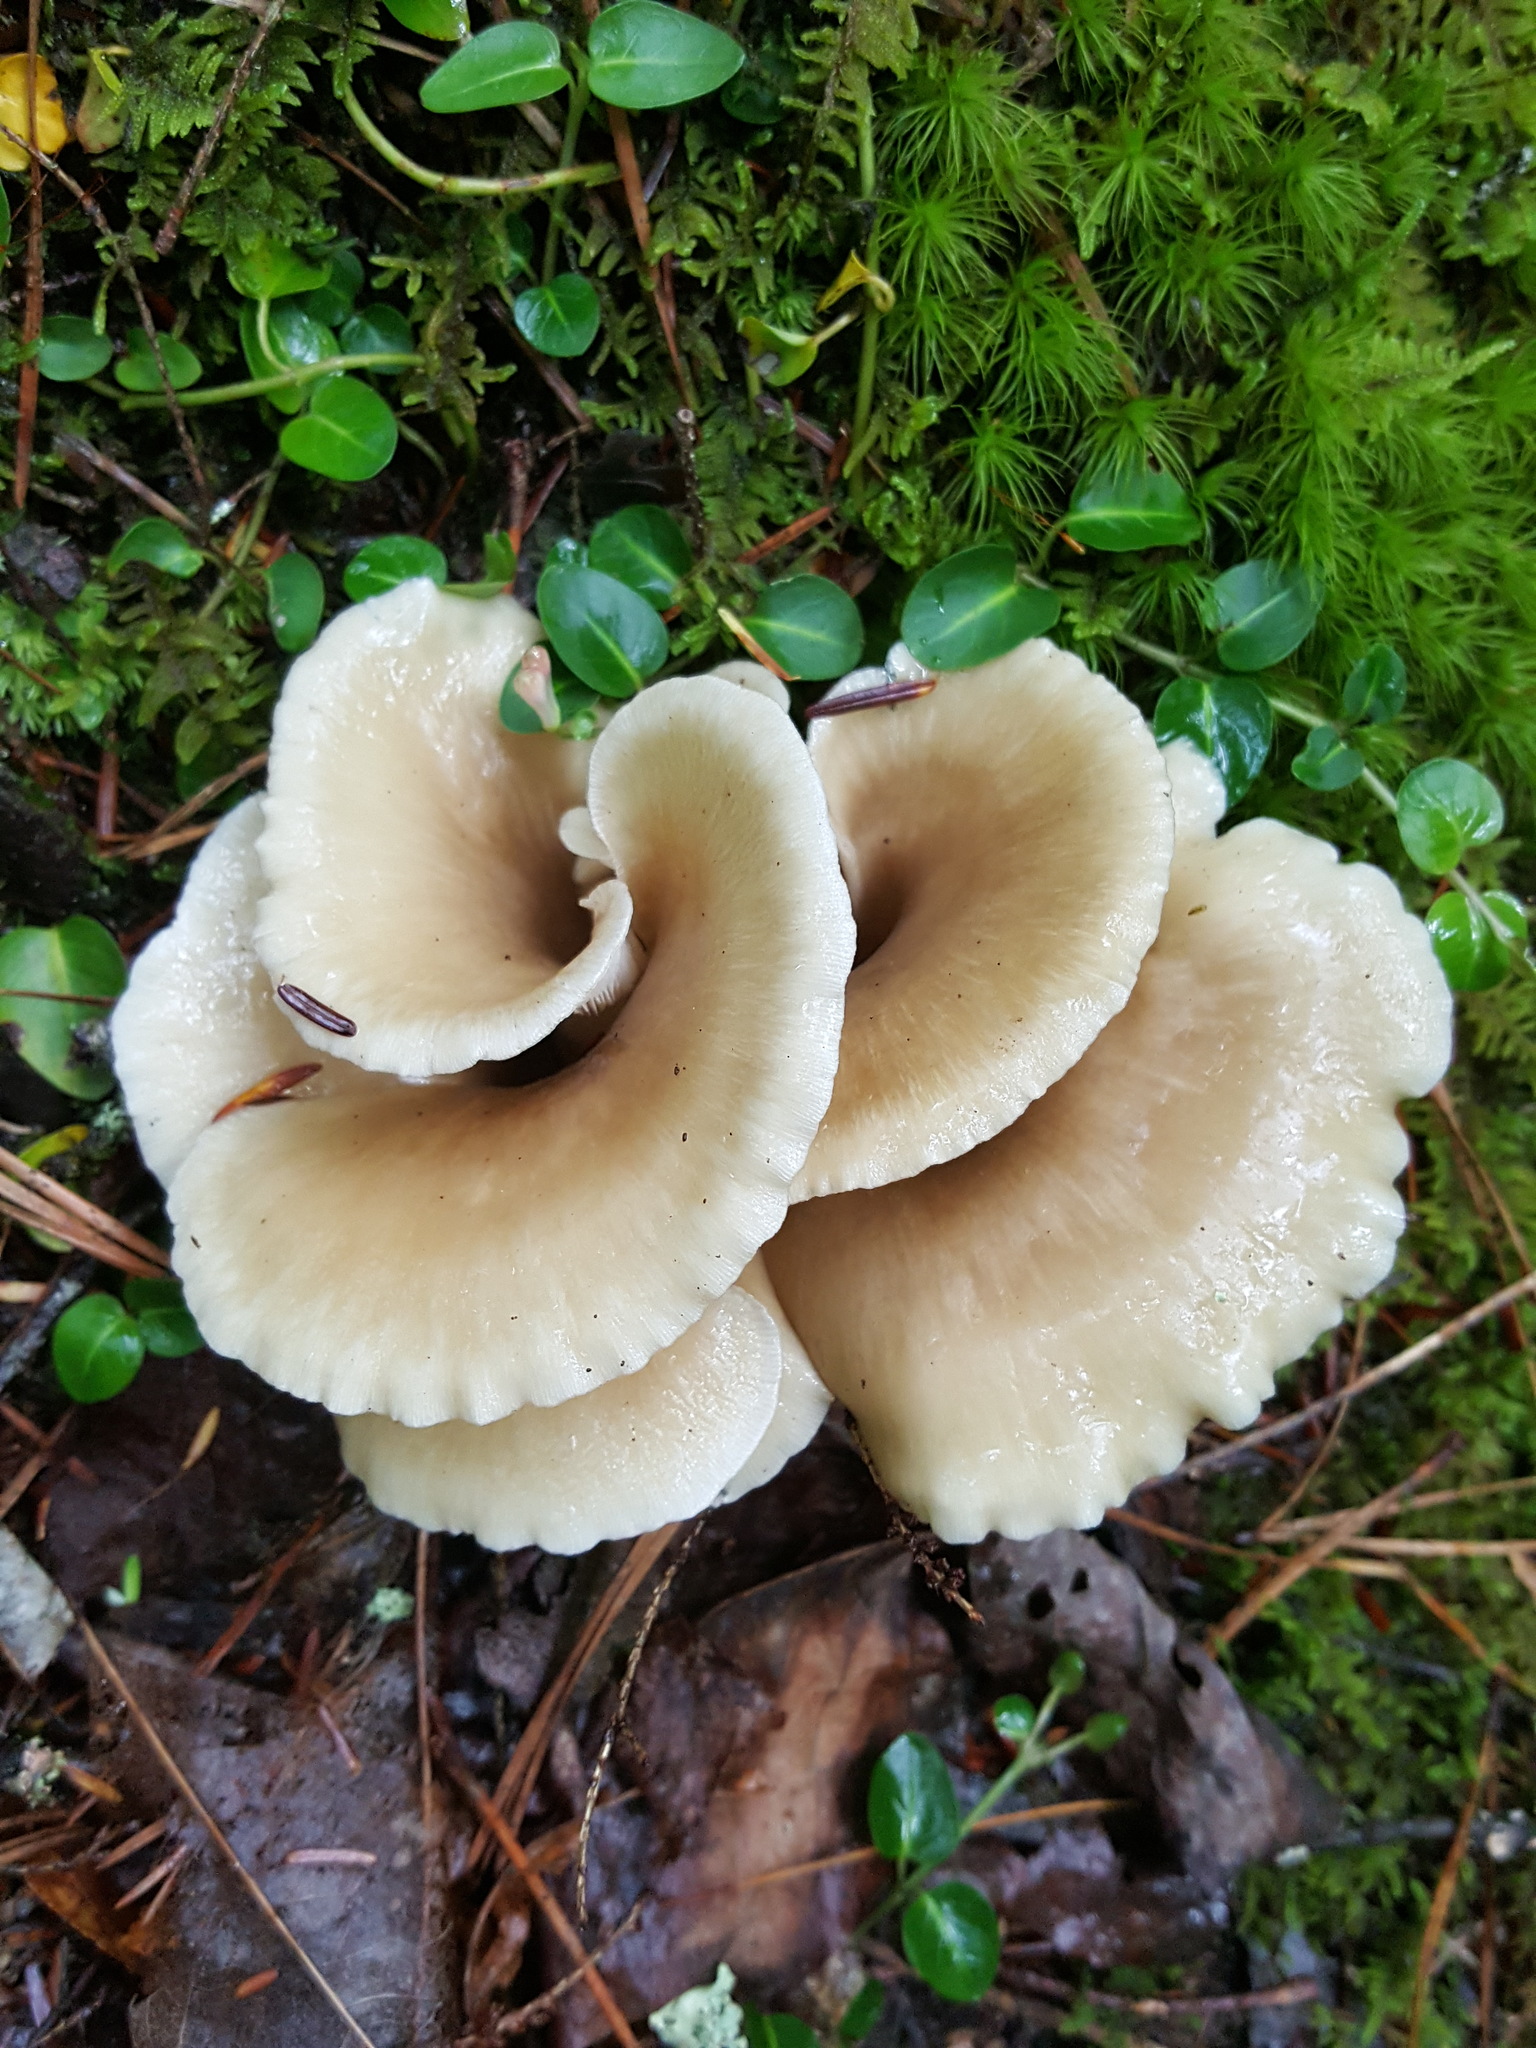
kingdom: Fungi
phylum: Basidiomycota
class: Agaricomycetes
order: Agaricales
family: Pleurotaceae
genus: Pleurotus
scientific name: Pleurotus ostreatus
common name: Oyster mushroom
